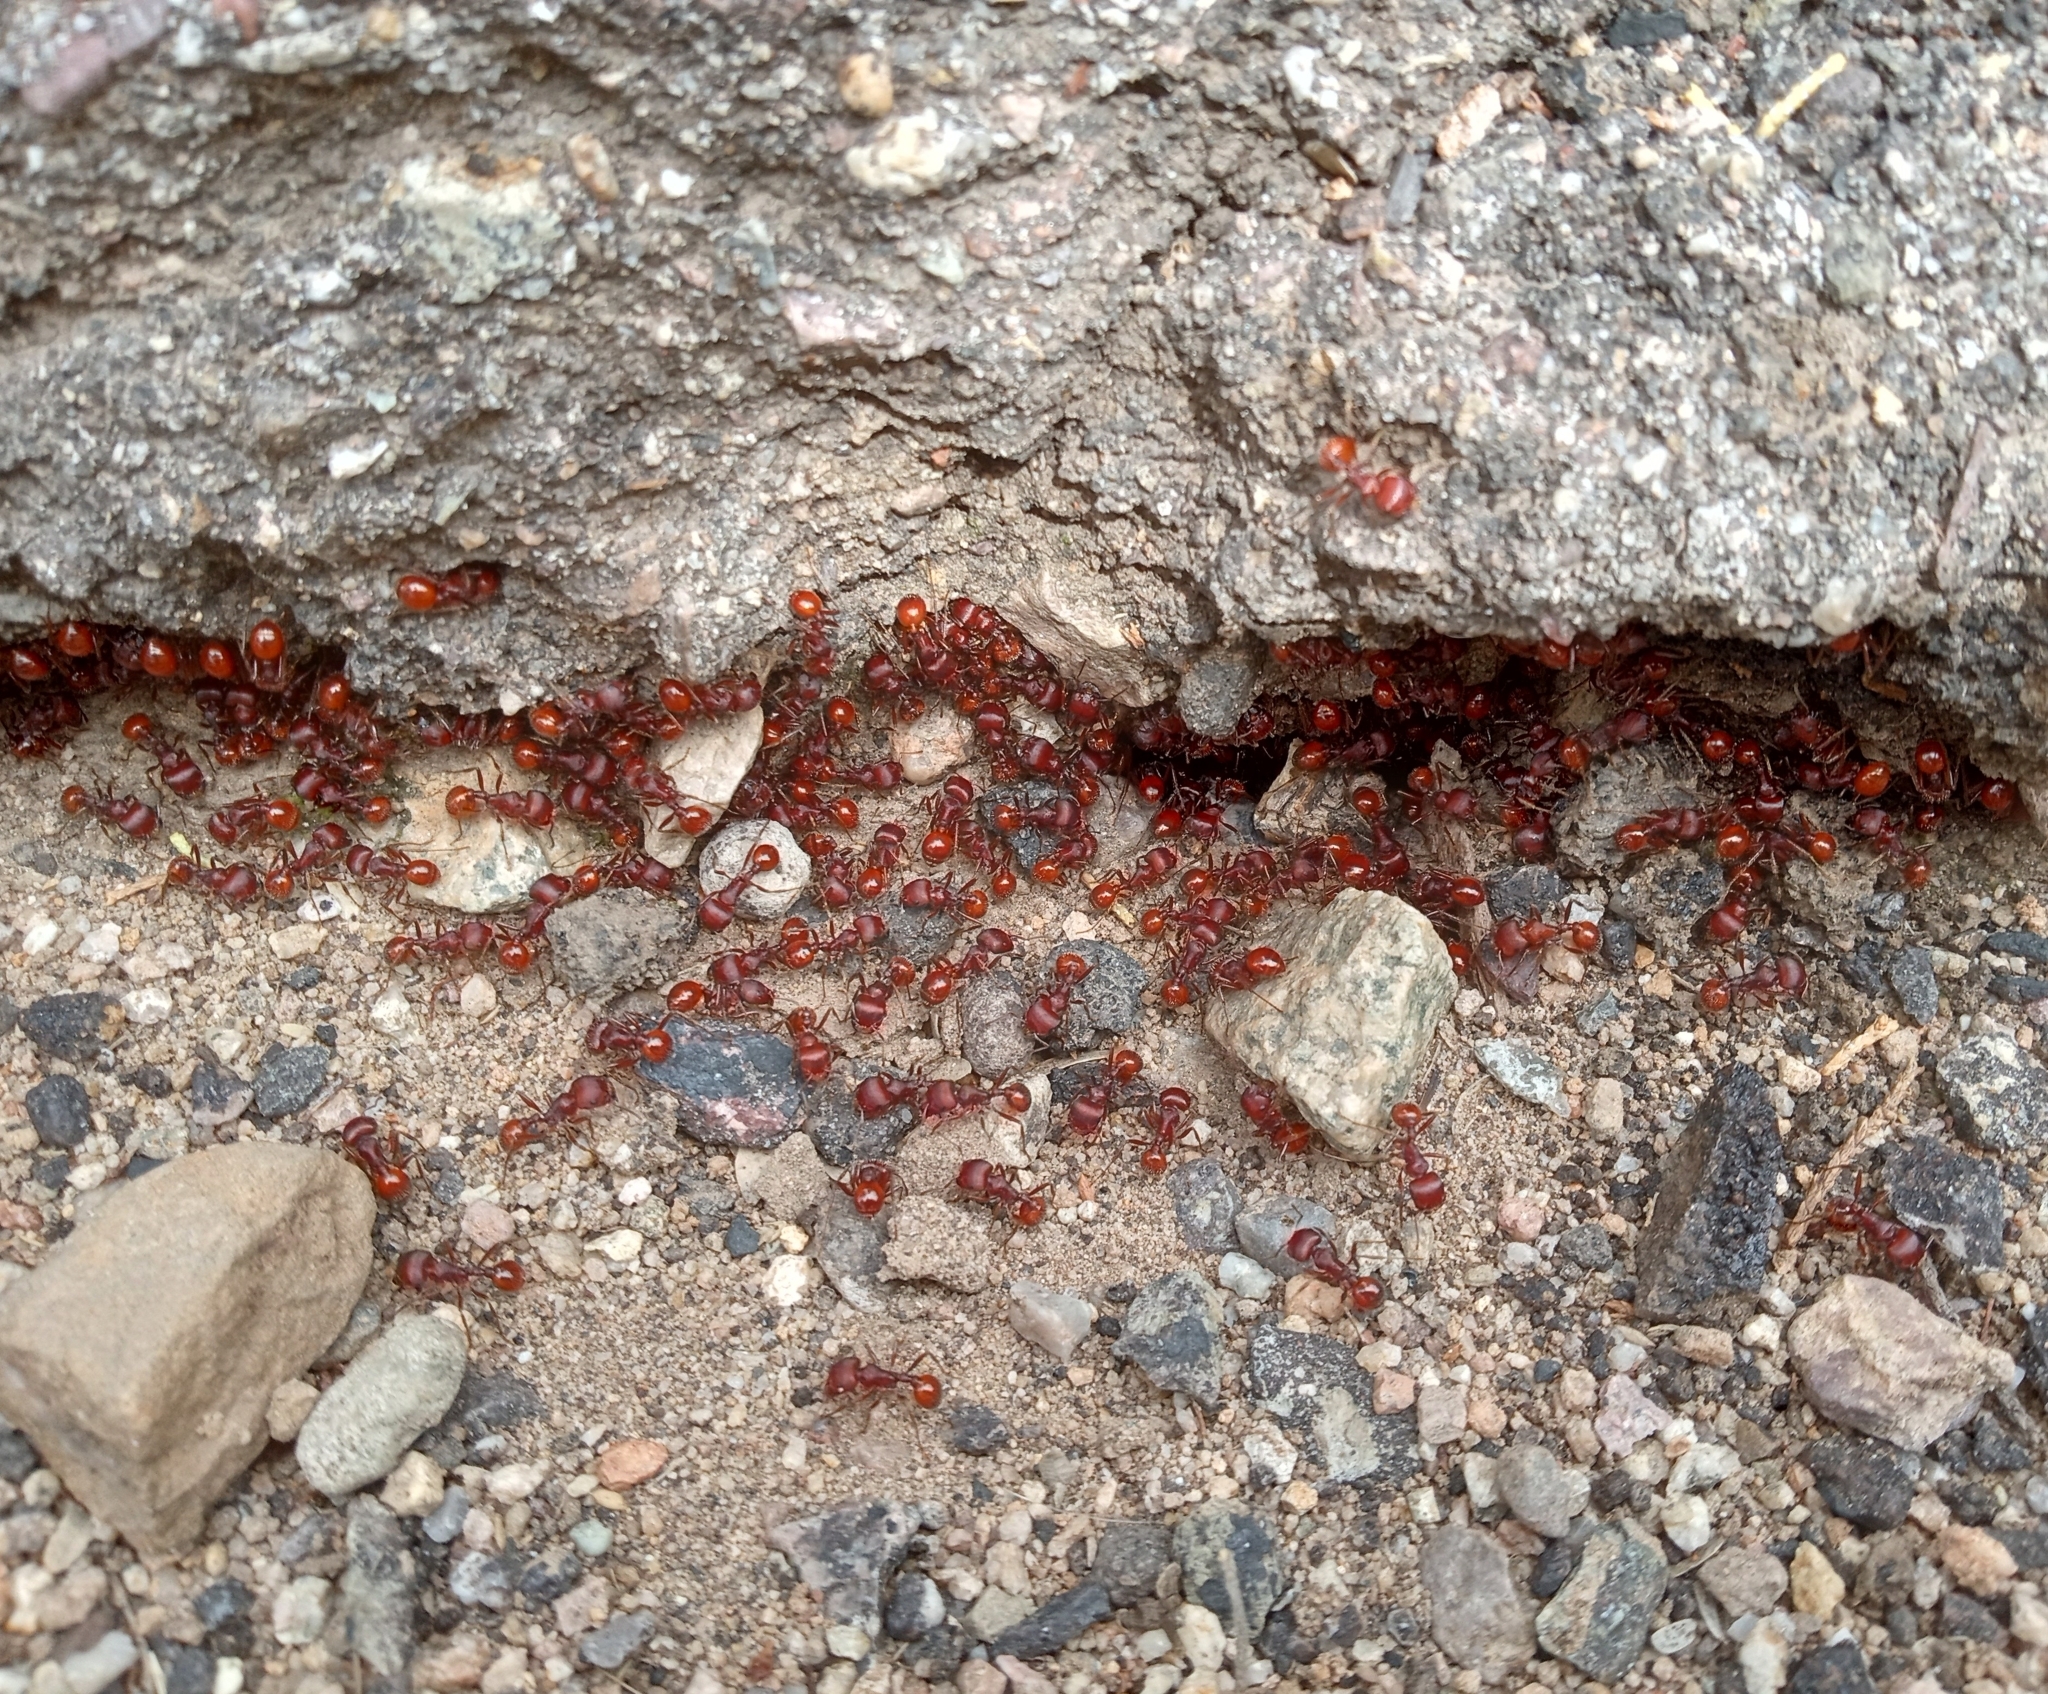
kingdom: Animalia
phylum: Arthropoda
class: Insecta
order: Hymenoptera
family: Formicidae
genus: Pogonomyrmex
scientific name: Pogonomyrmex barbatus
